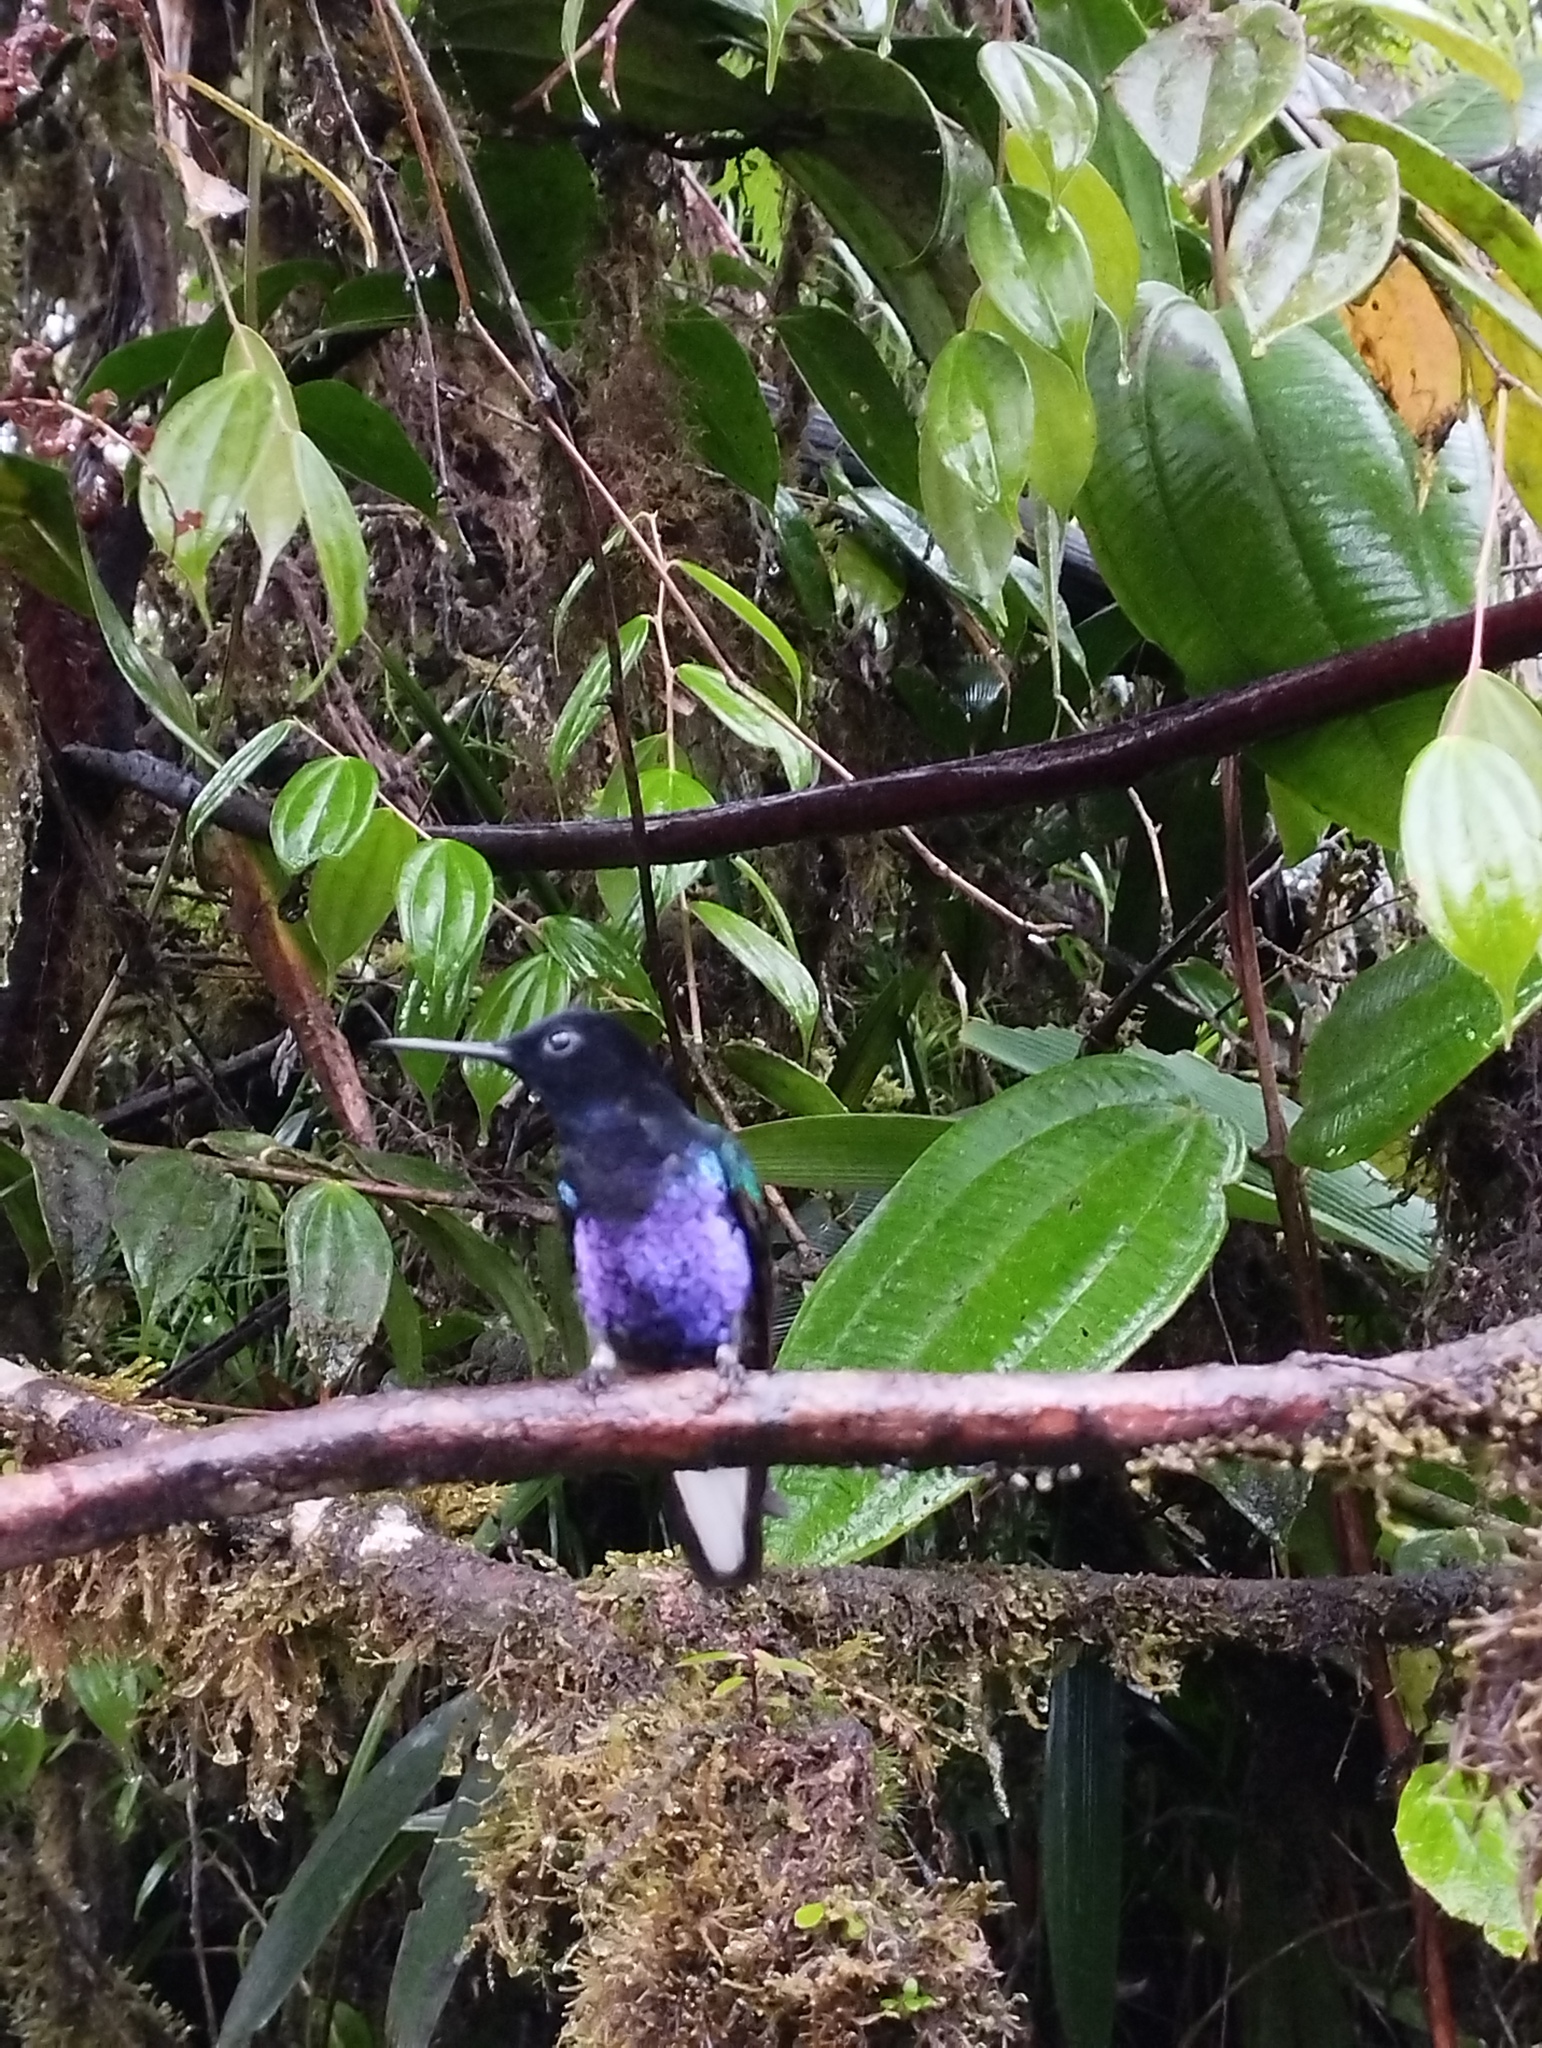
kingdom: Animalia
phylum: Chordata
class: Aves
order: Apodiformes
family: Trochilidae
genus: Boissonneaua
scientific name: Boissonneaua jardini
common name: Velvet-purple coronet
